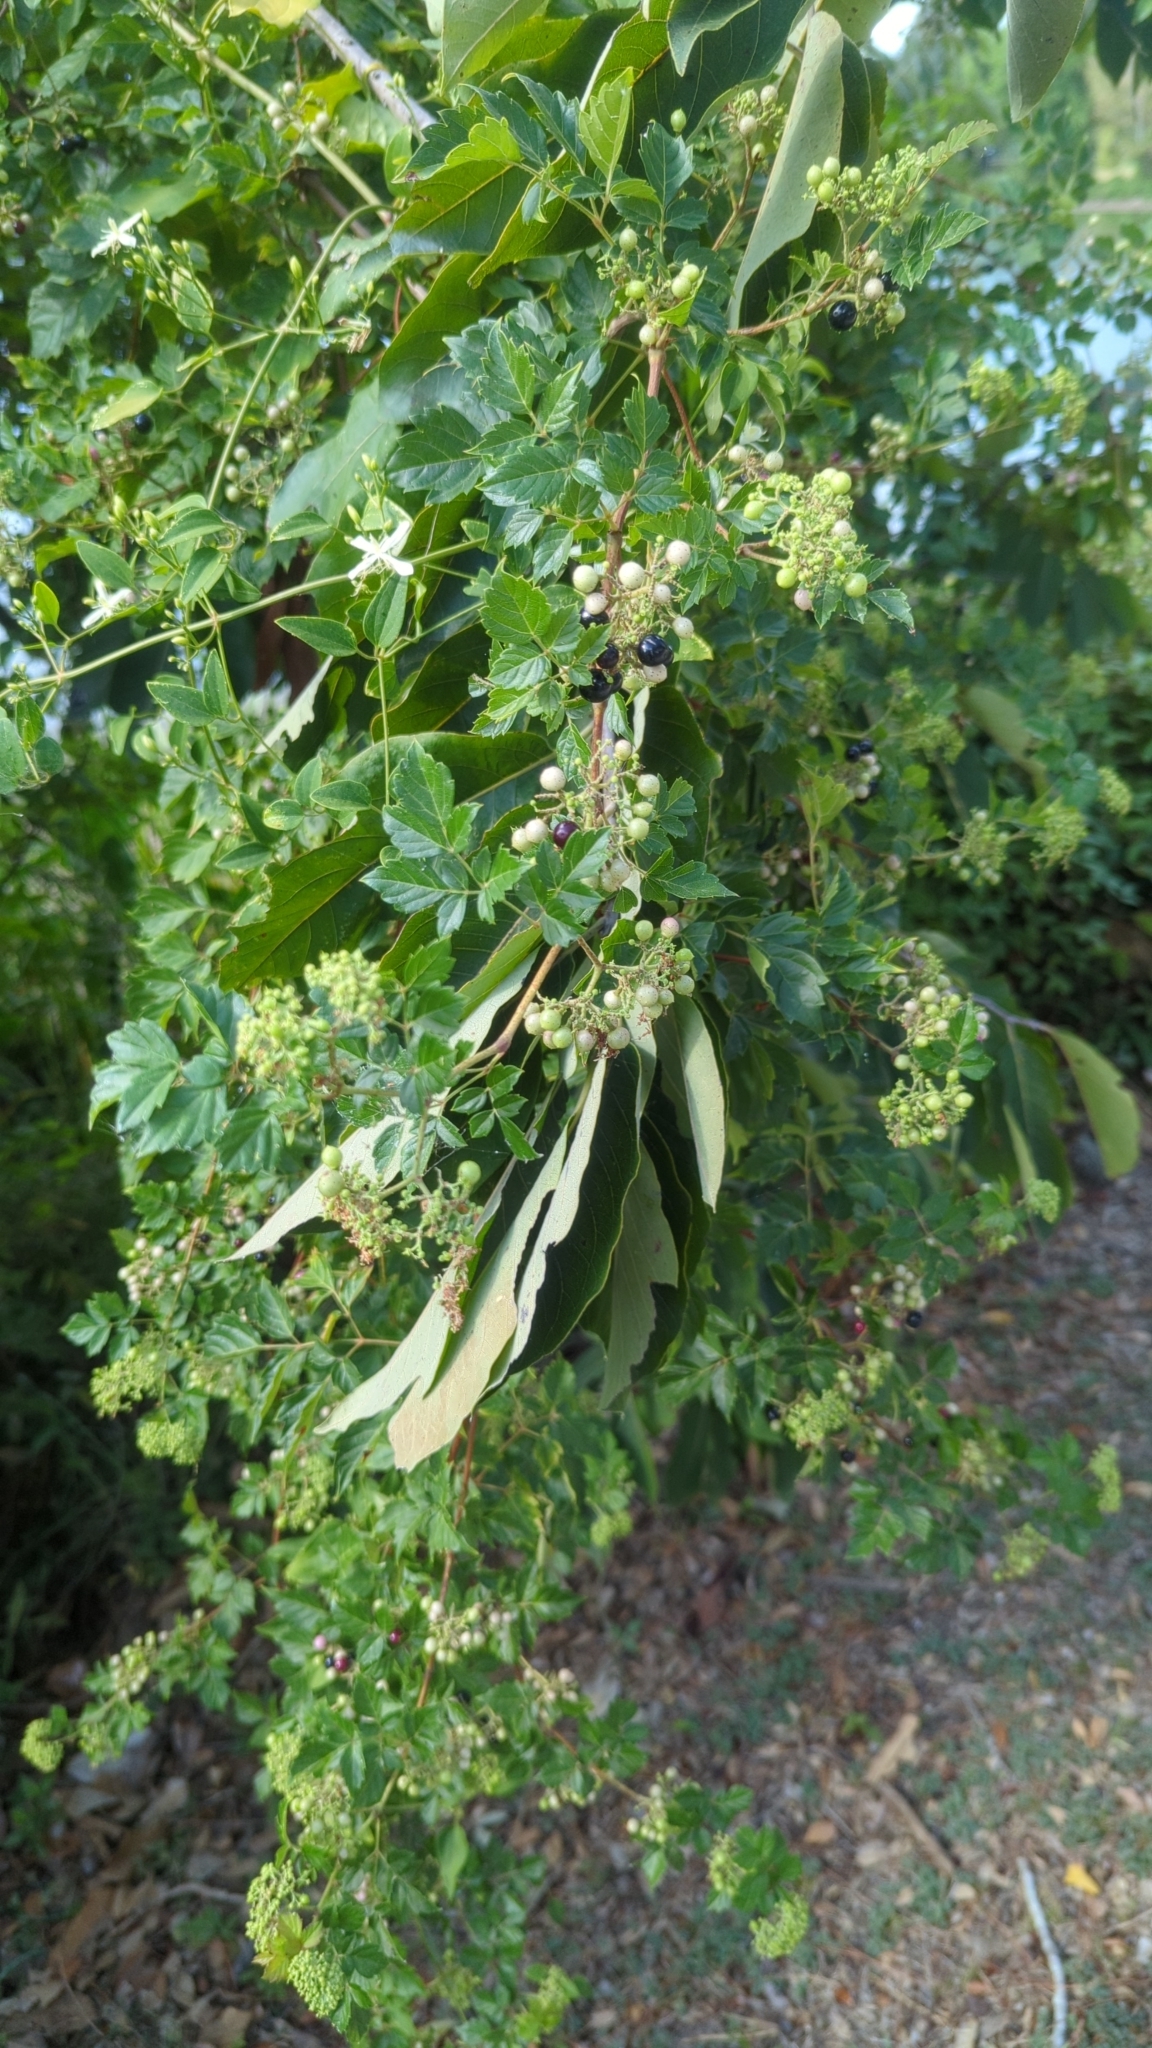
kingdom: Plantae
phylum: Tracheophyta
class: Magnoliopsida
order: Vitales
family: Vitaceae
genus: Nekemias
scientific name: Nekemias arborea
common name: Peppervine
